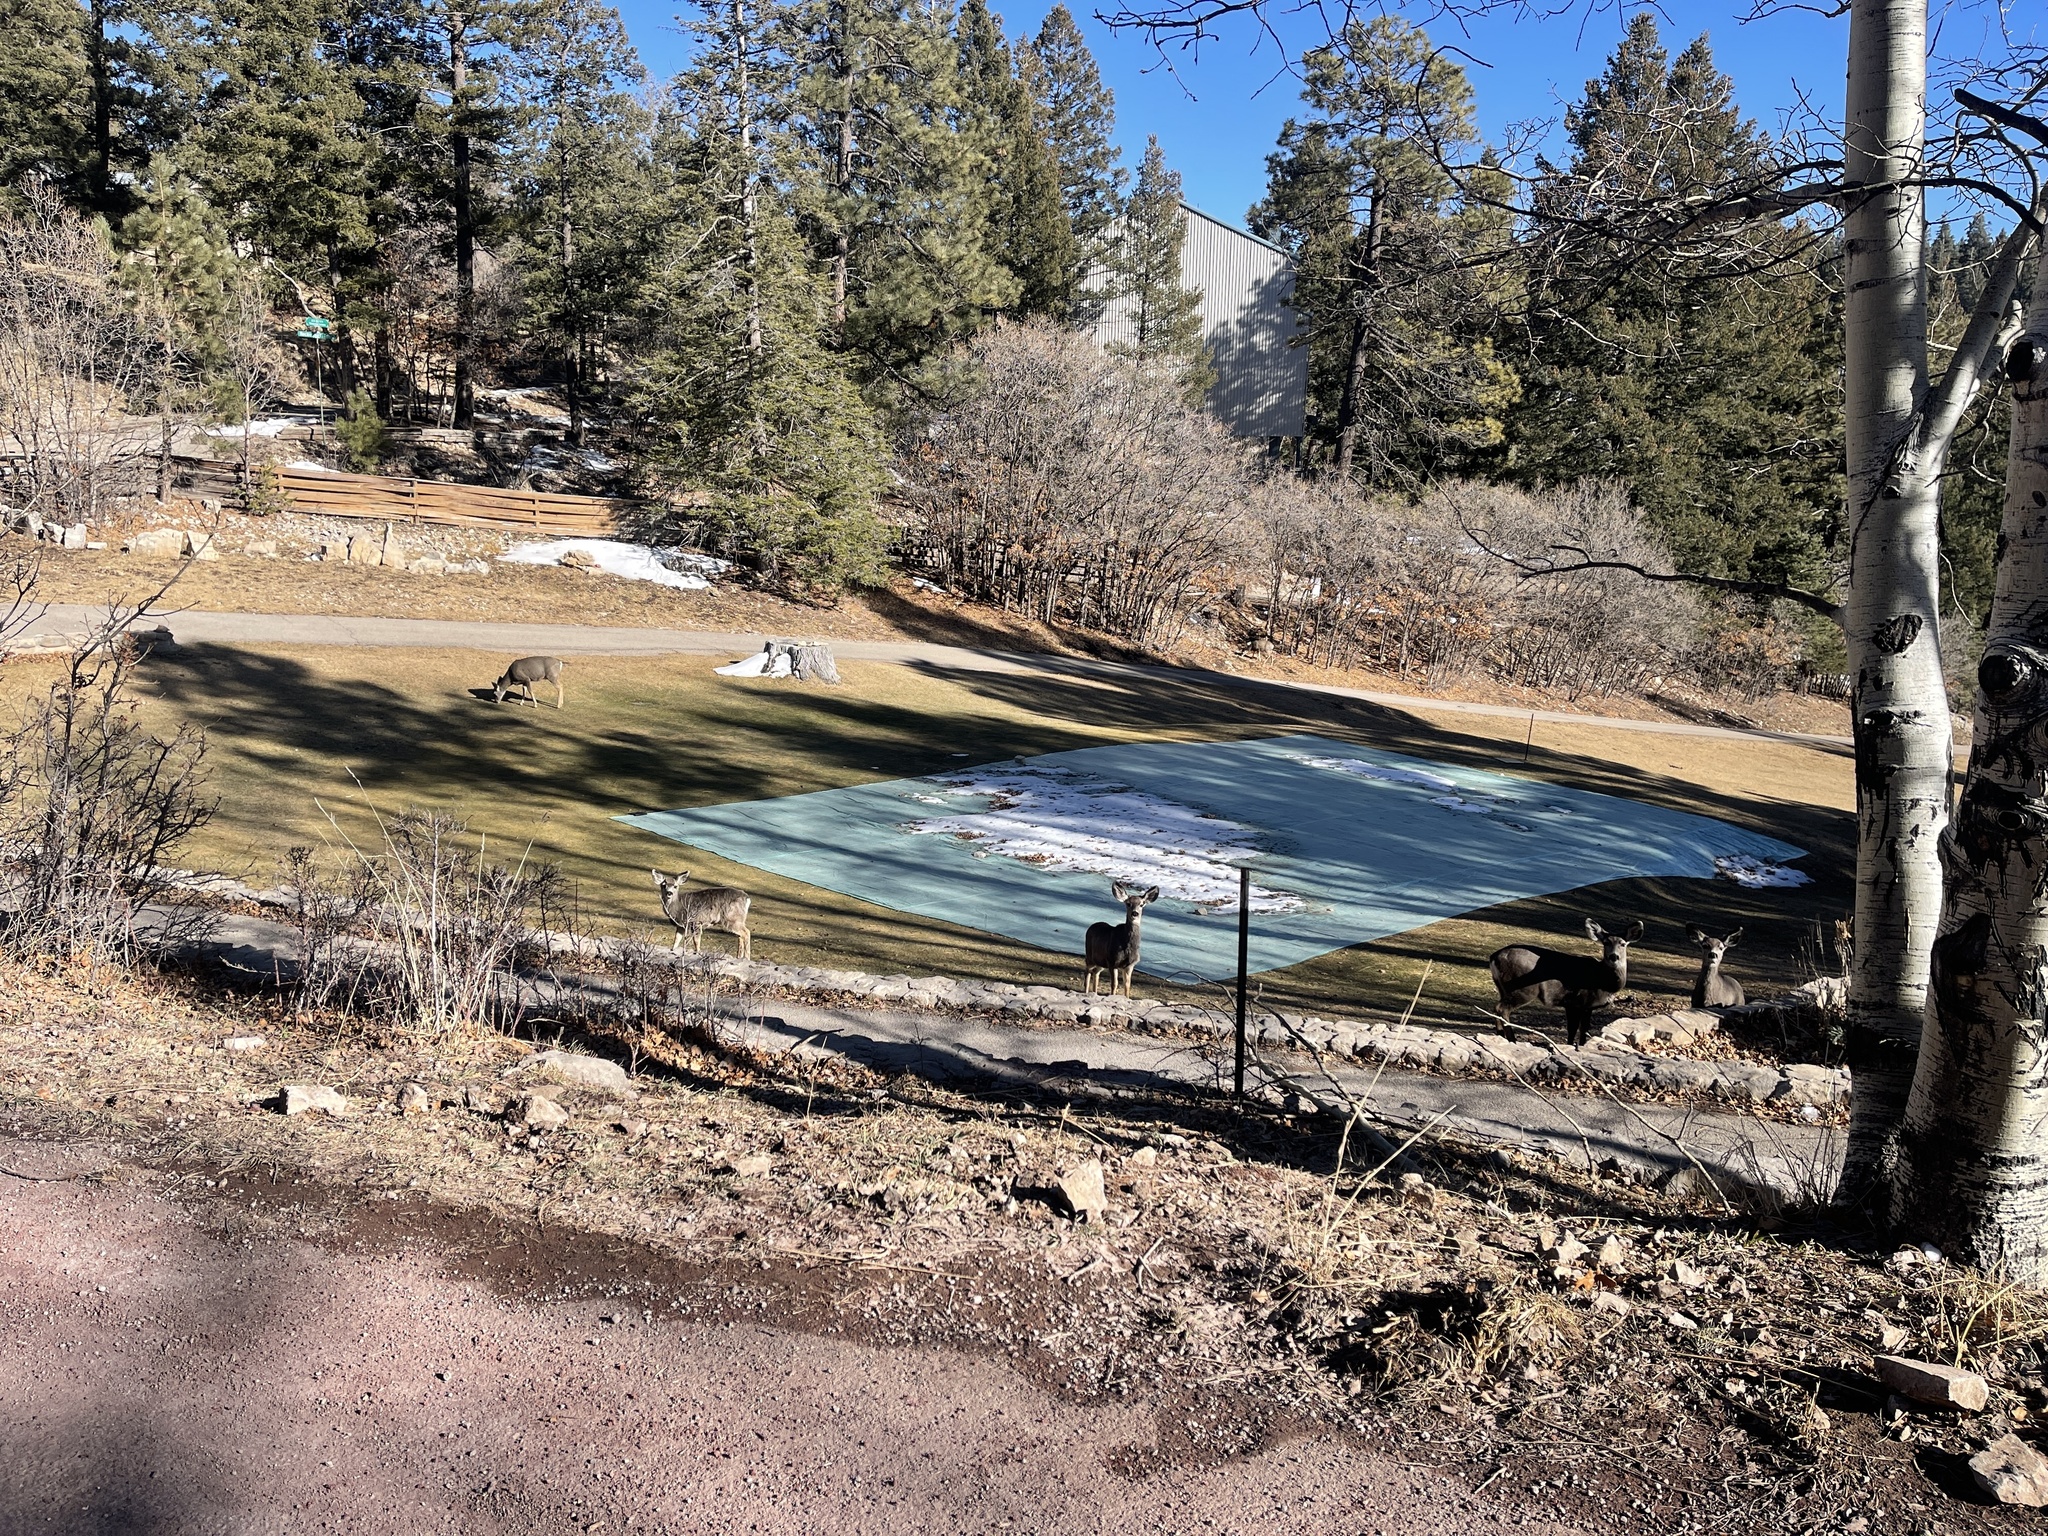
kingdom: Animalia
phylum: Chordata
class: Mammalia
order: Artiodactyla
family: Cervidae
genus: Odocoileus
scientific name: Odocoileus hemionus
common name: Mule deer
